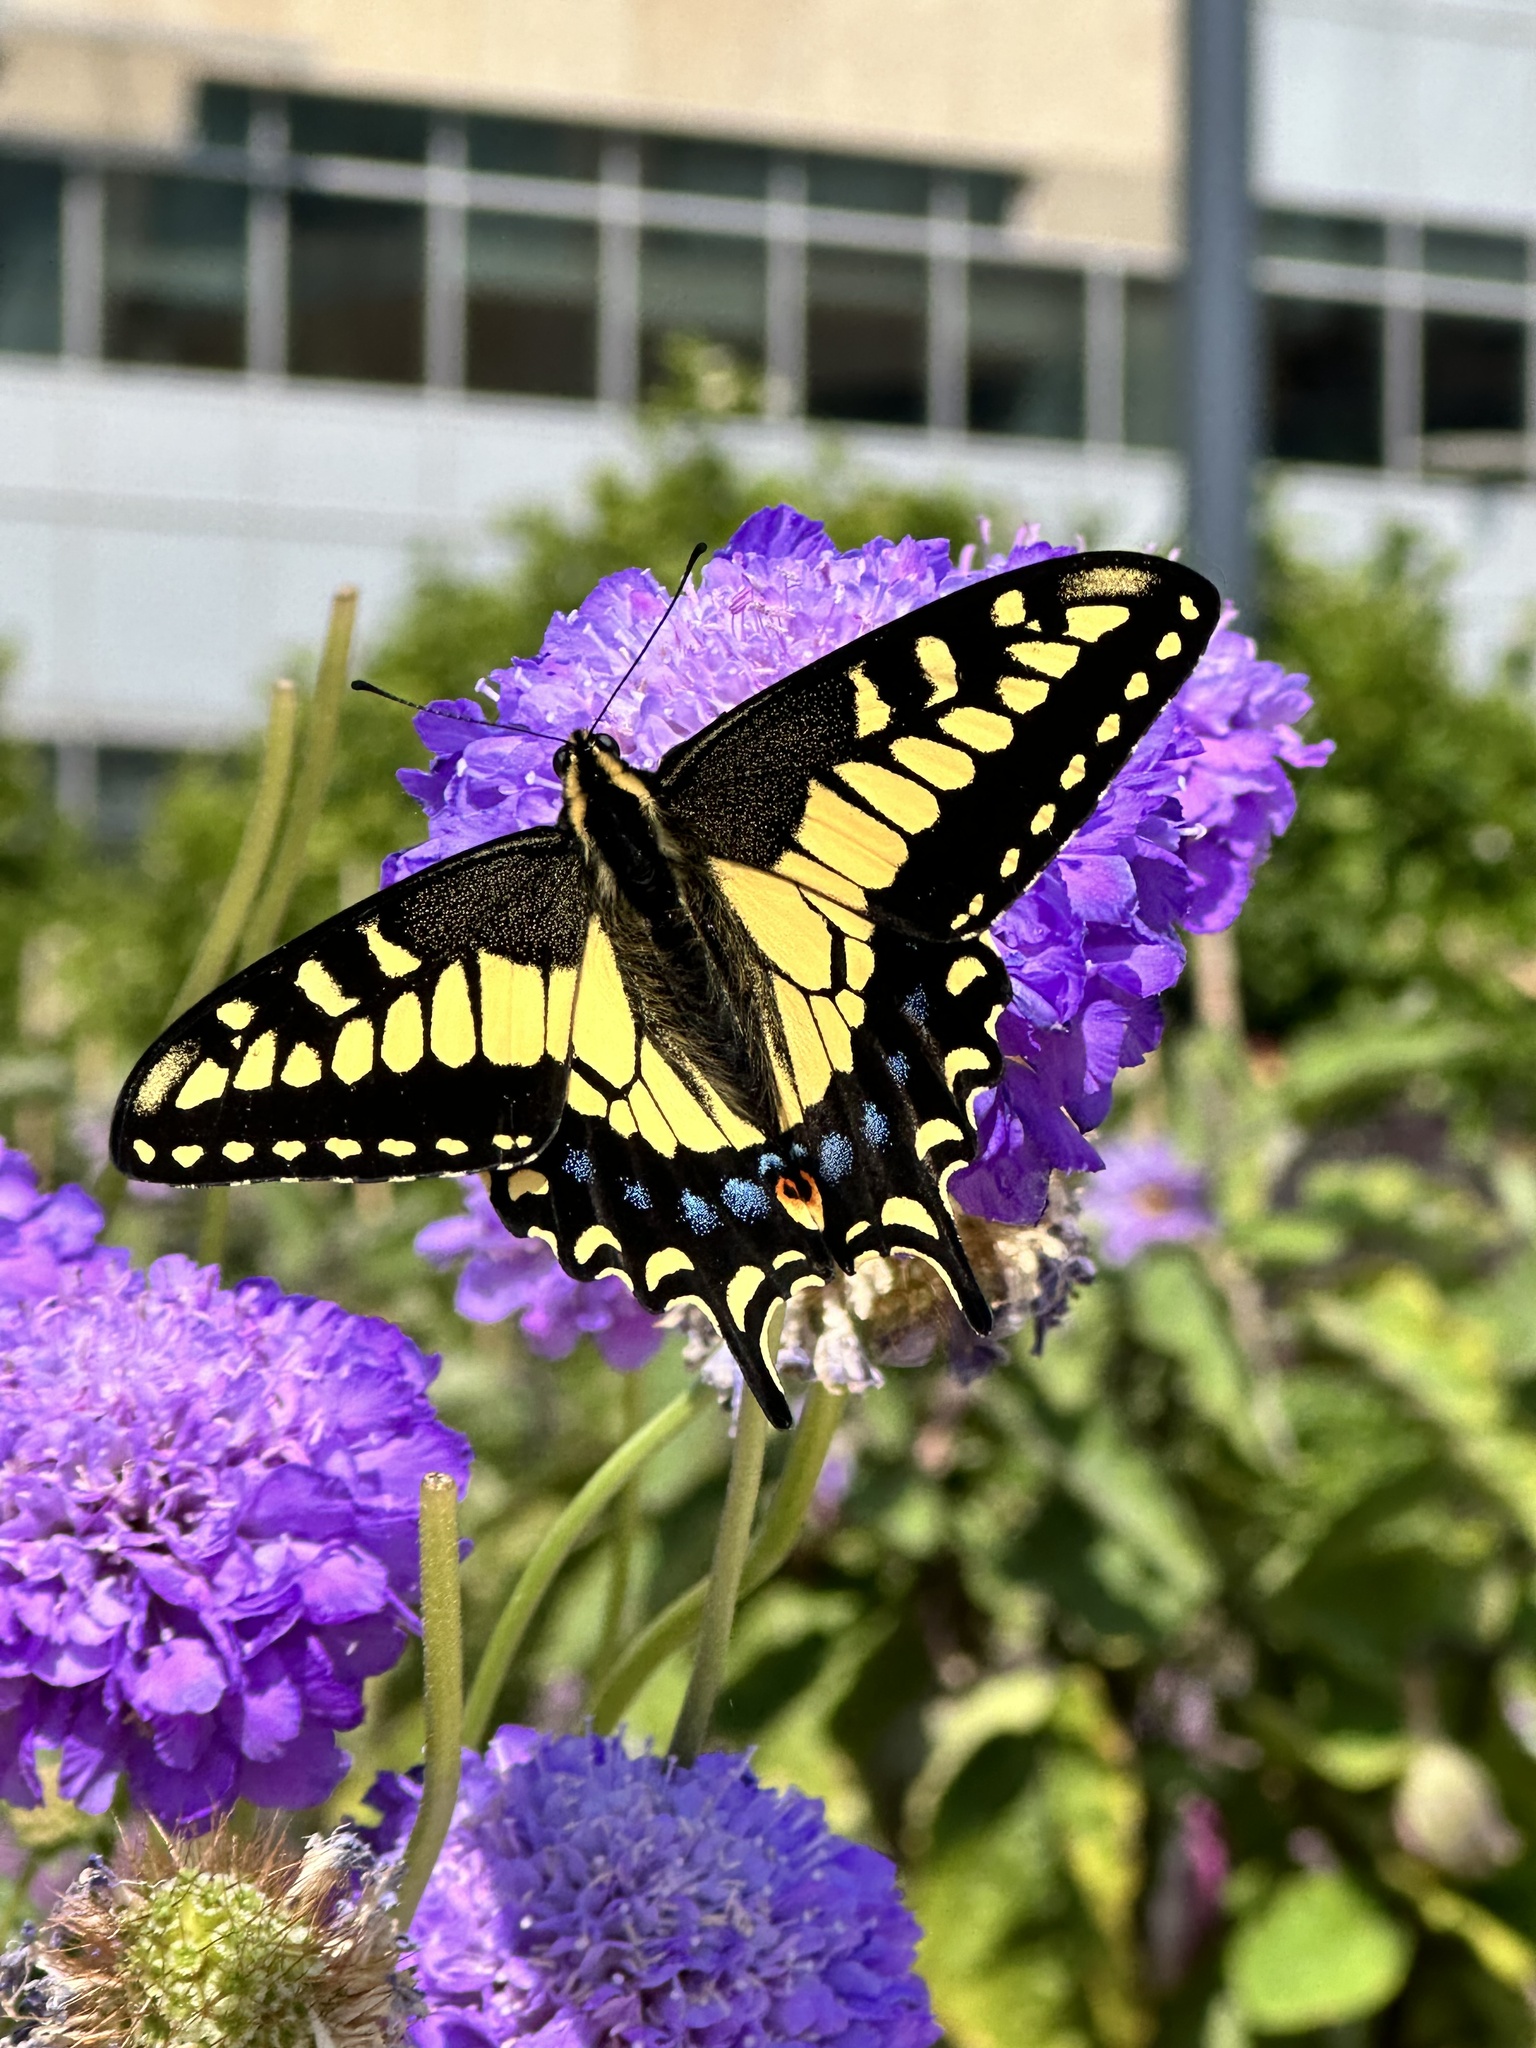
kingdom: Animalia
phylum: Arthropoda
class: Insecta
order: Lepidoptera
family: Papilionidae
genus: Papilio
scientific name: Papilio zelicaon
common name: Anise swallowtail
